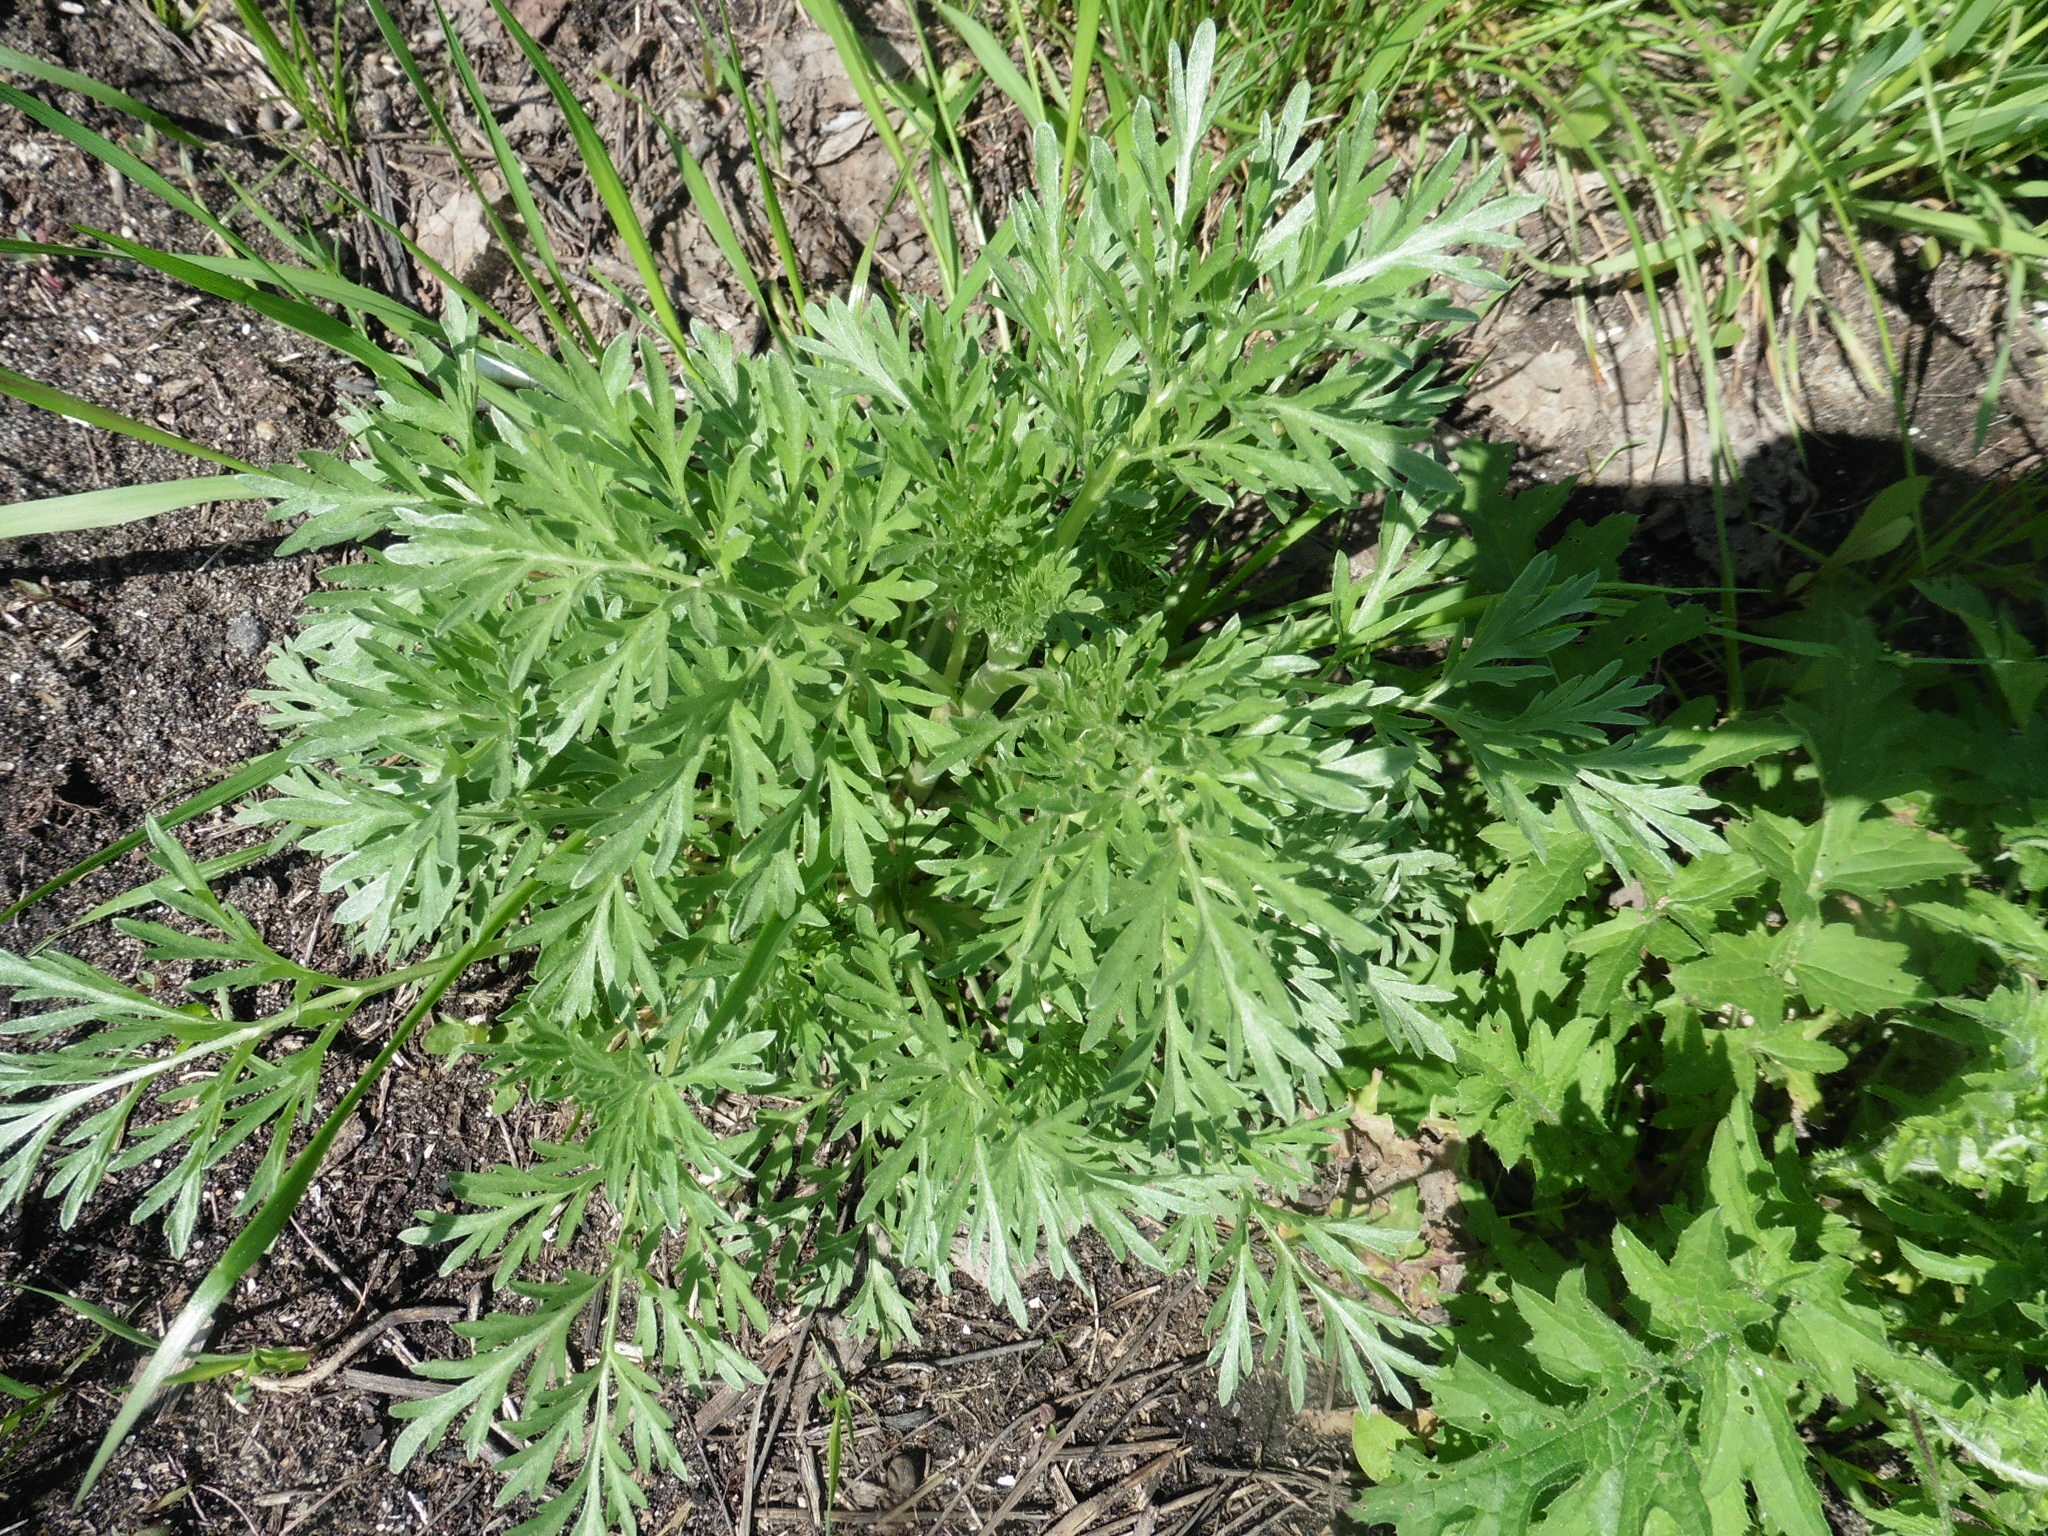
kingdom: Plantae
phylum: Tracheophyta
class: Magnoliopsida
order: Asterales
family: Asteraceae
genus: Artemisia
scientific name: Artemisia absinthium
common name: Wormwood
